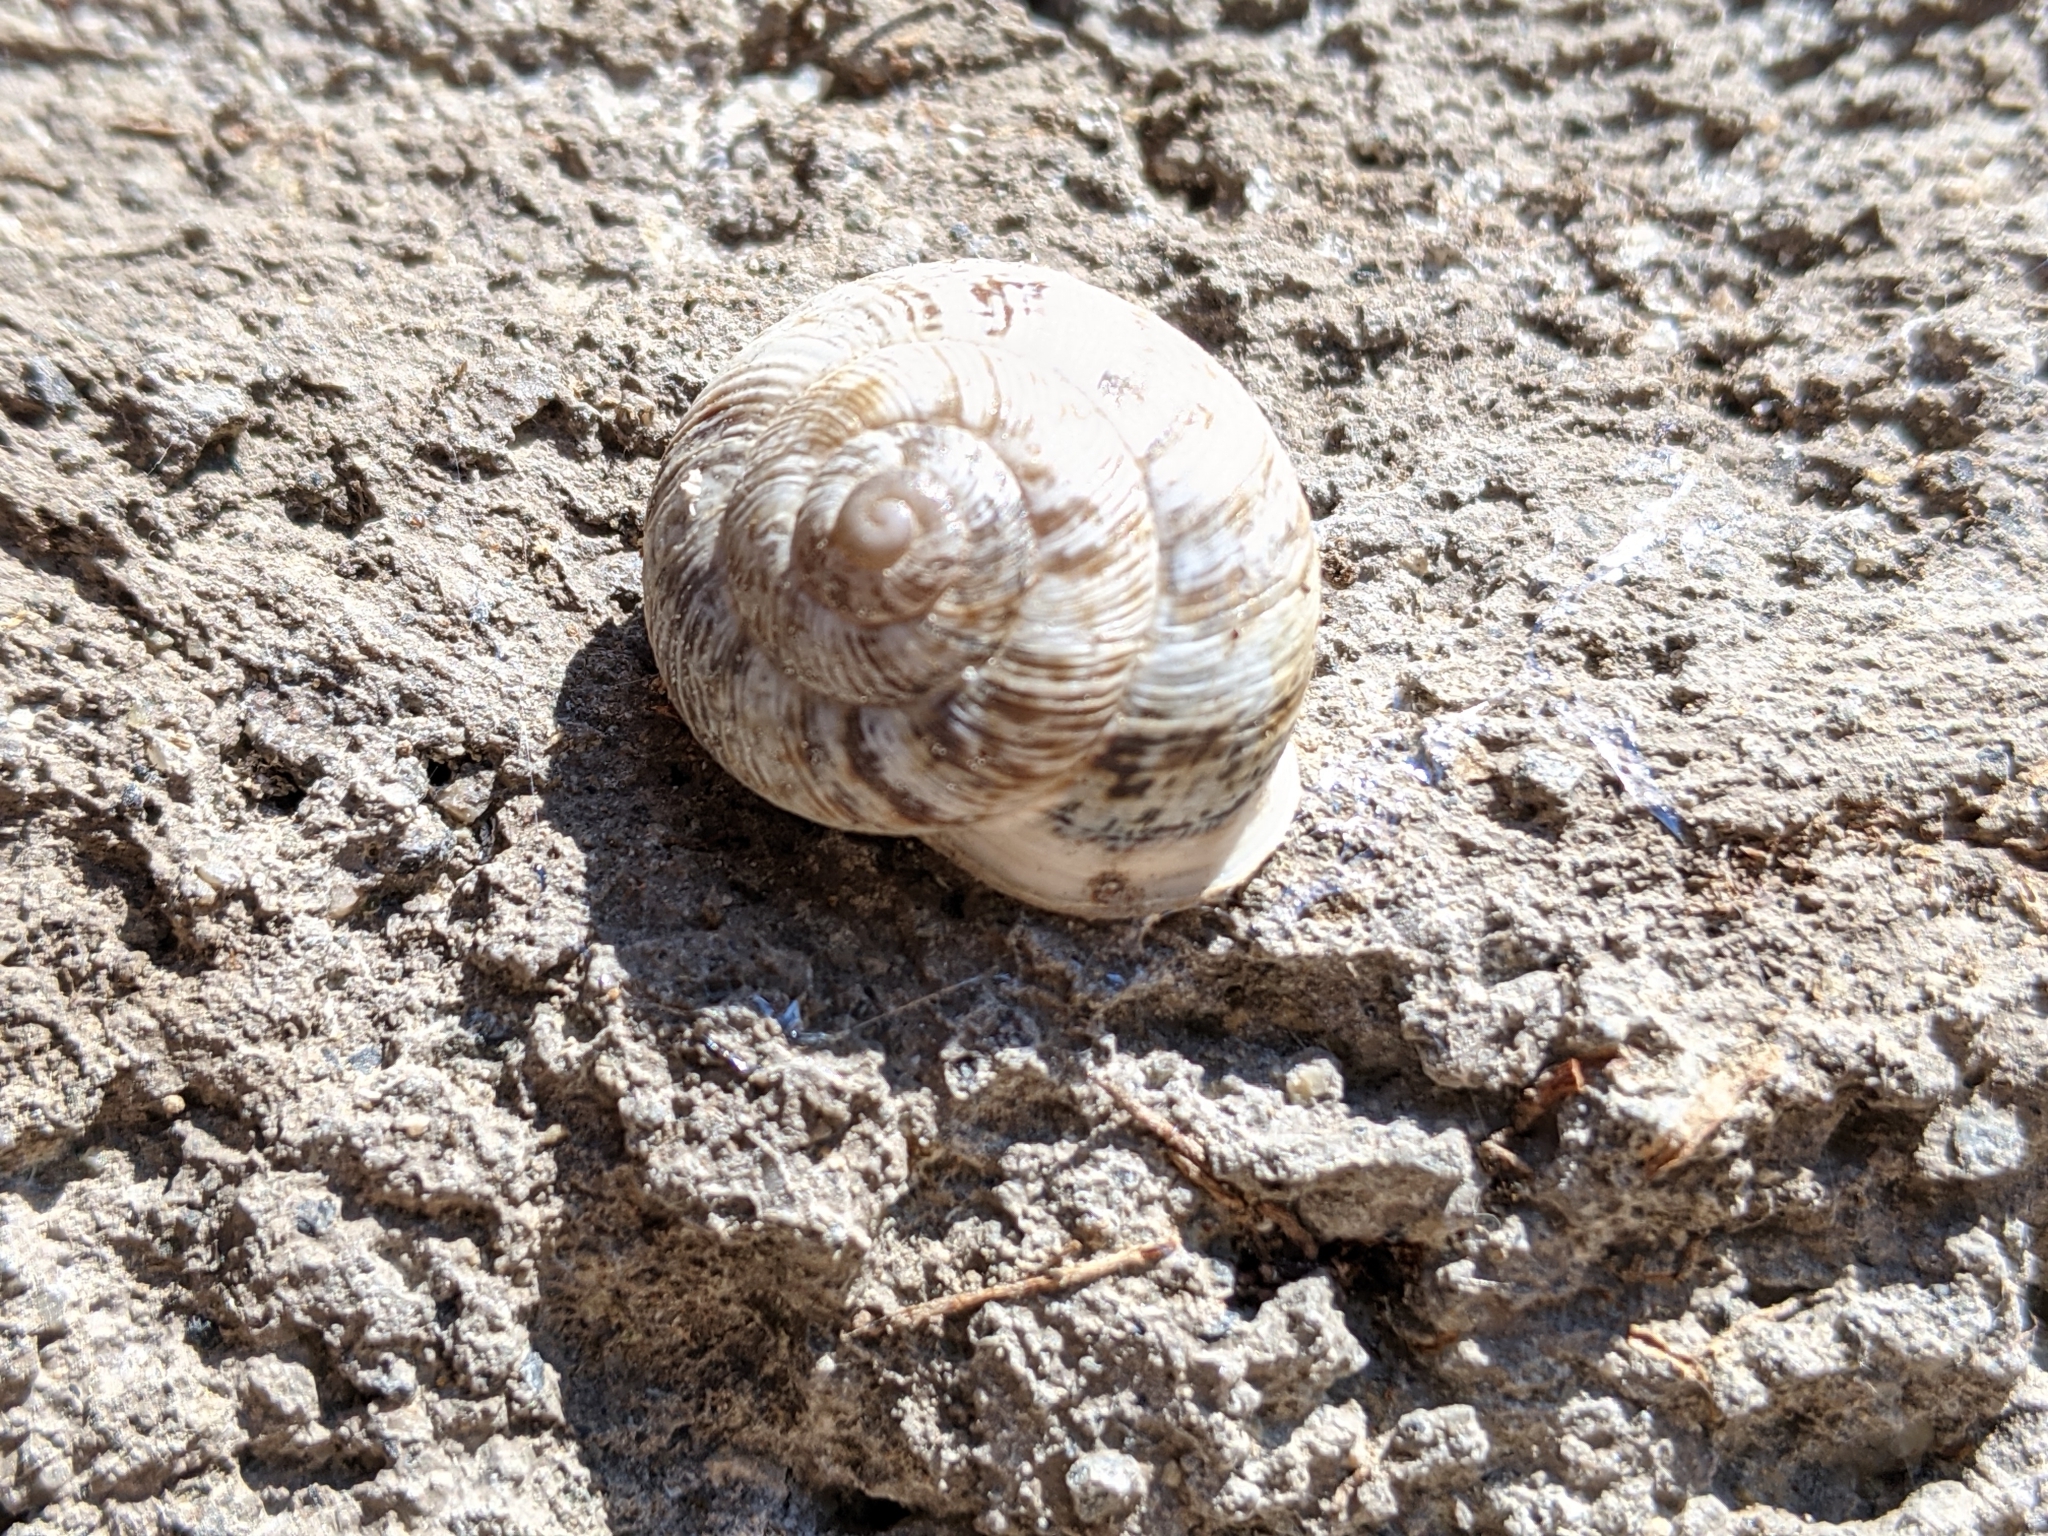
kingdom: Animalia
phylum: Mollusca
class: Gastropoda
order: Stylommatophora
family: Helicidae
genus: Marmorana
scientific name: Marmorana muralis
